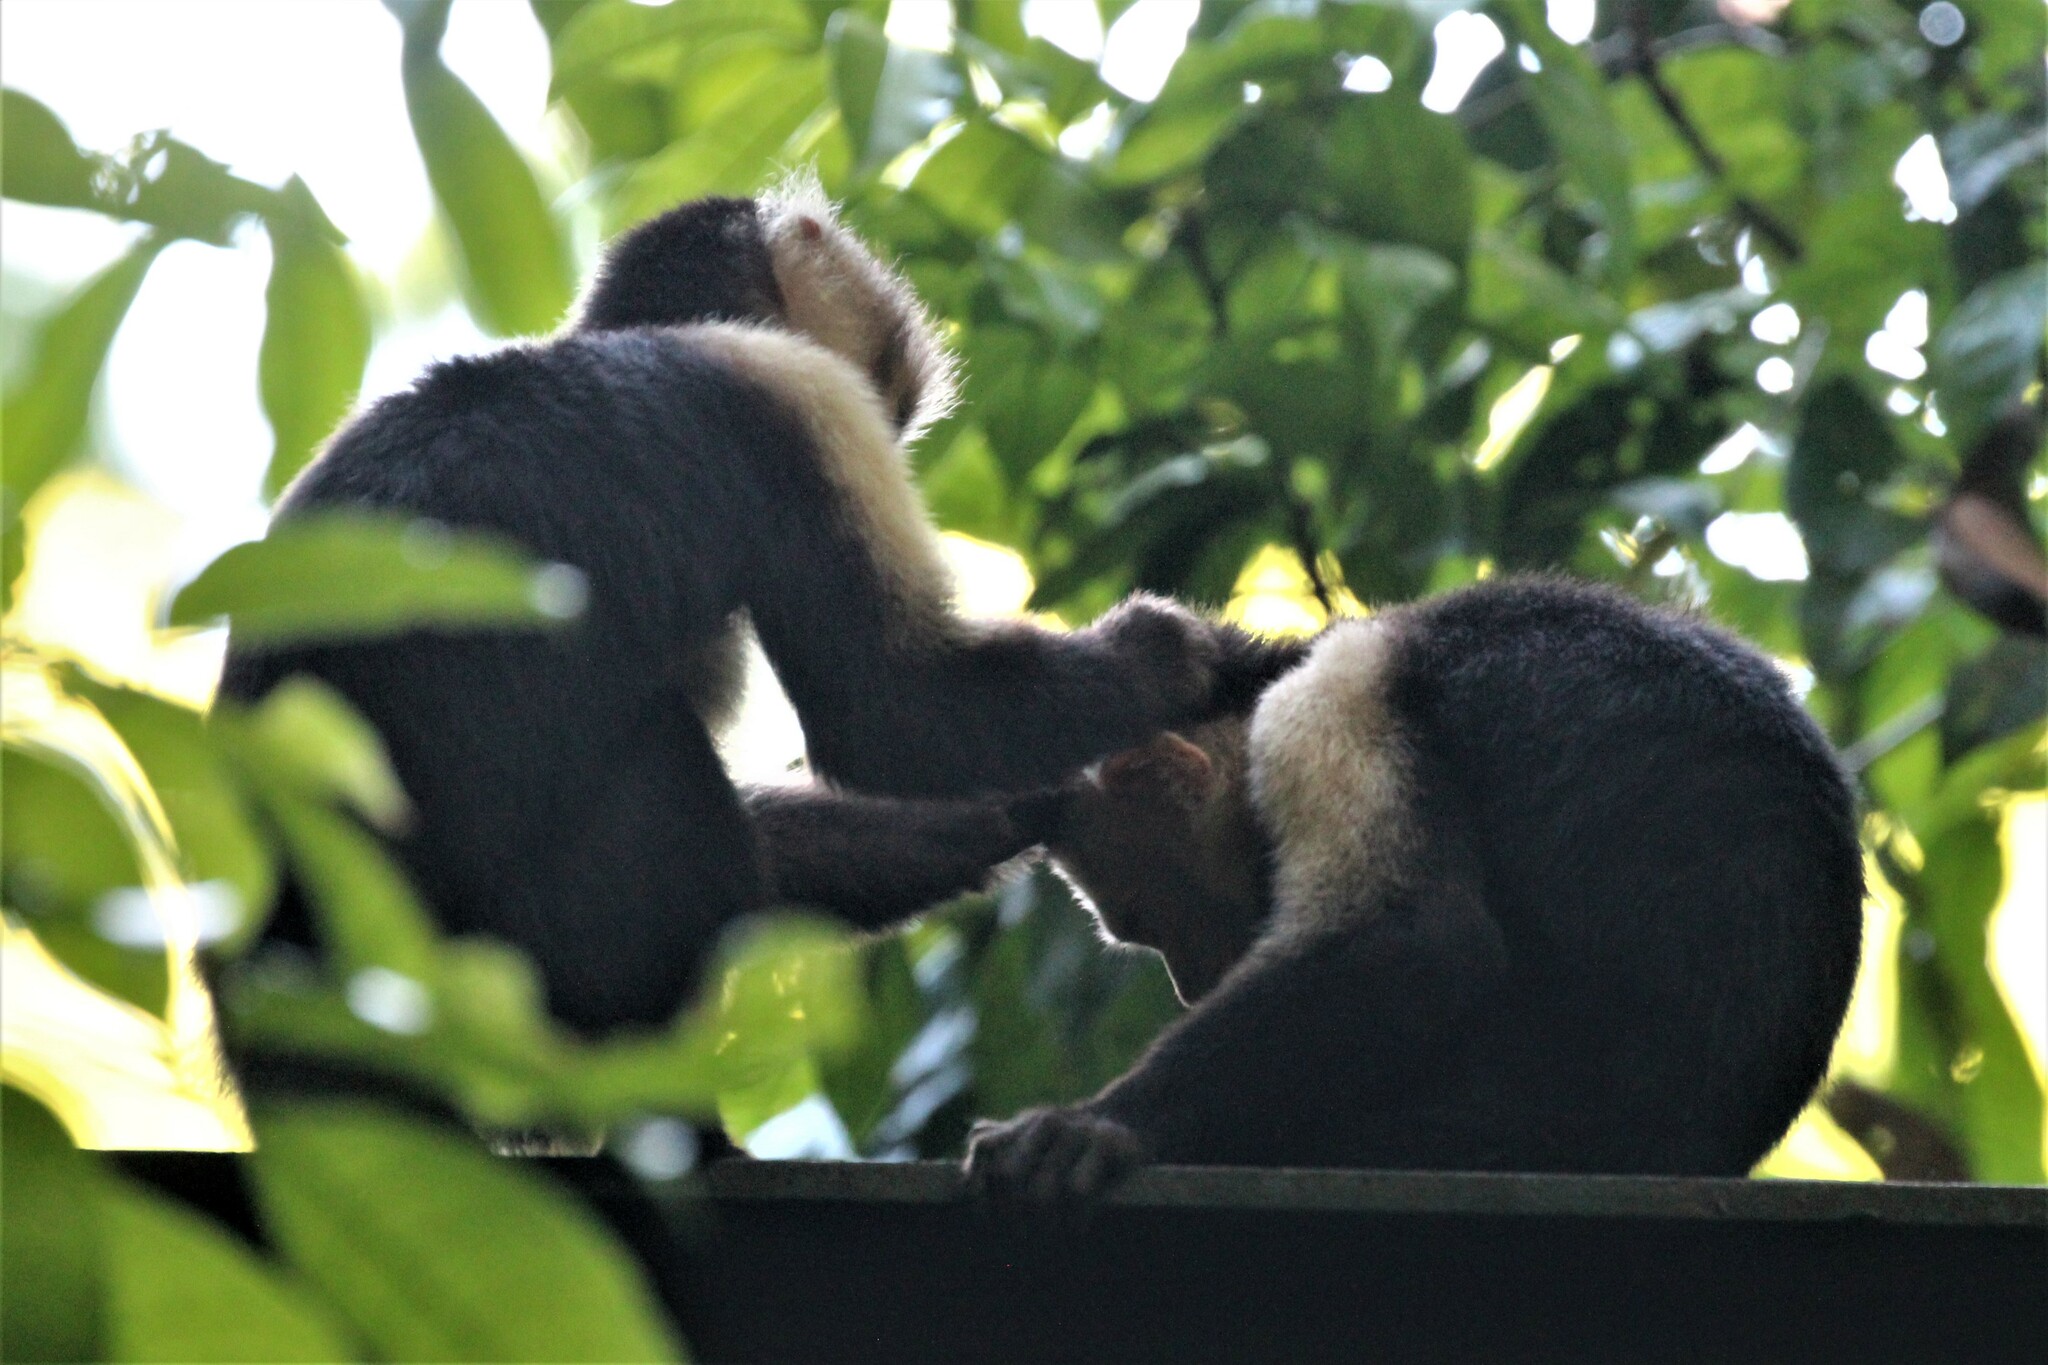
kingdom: Animalia
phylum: Chordata
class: Mammalia
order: Primates
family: Cebidae
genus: Cebus
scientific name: Cebus imitator
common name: Panamanian white-faced capuchin
